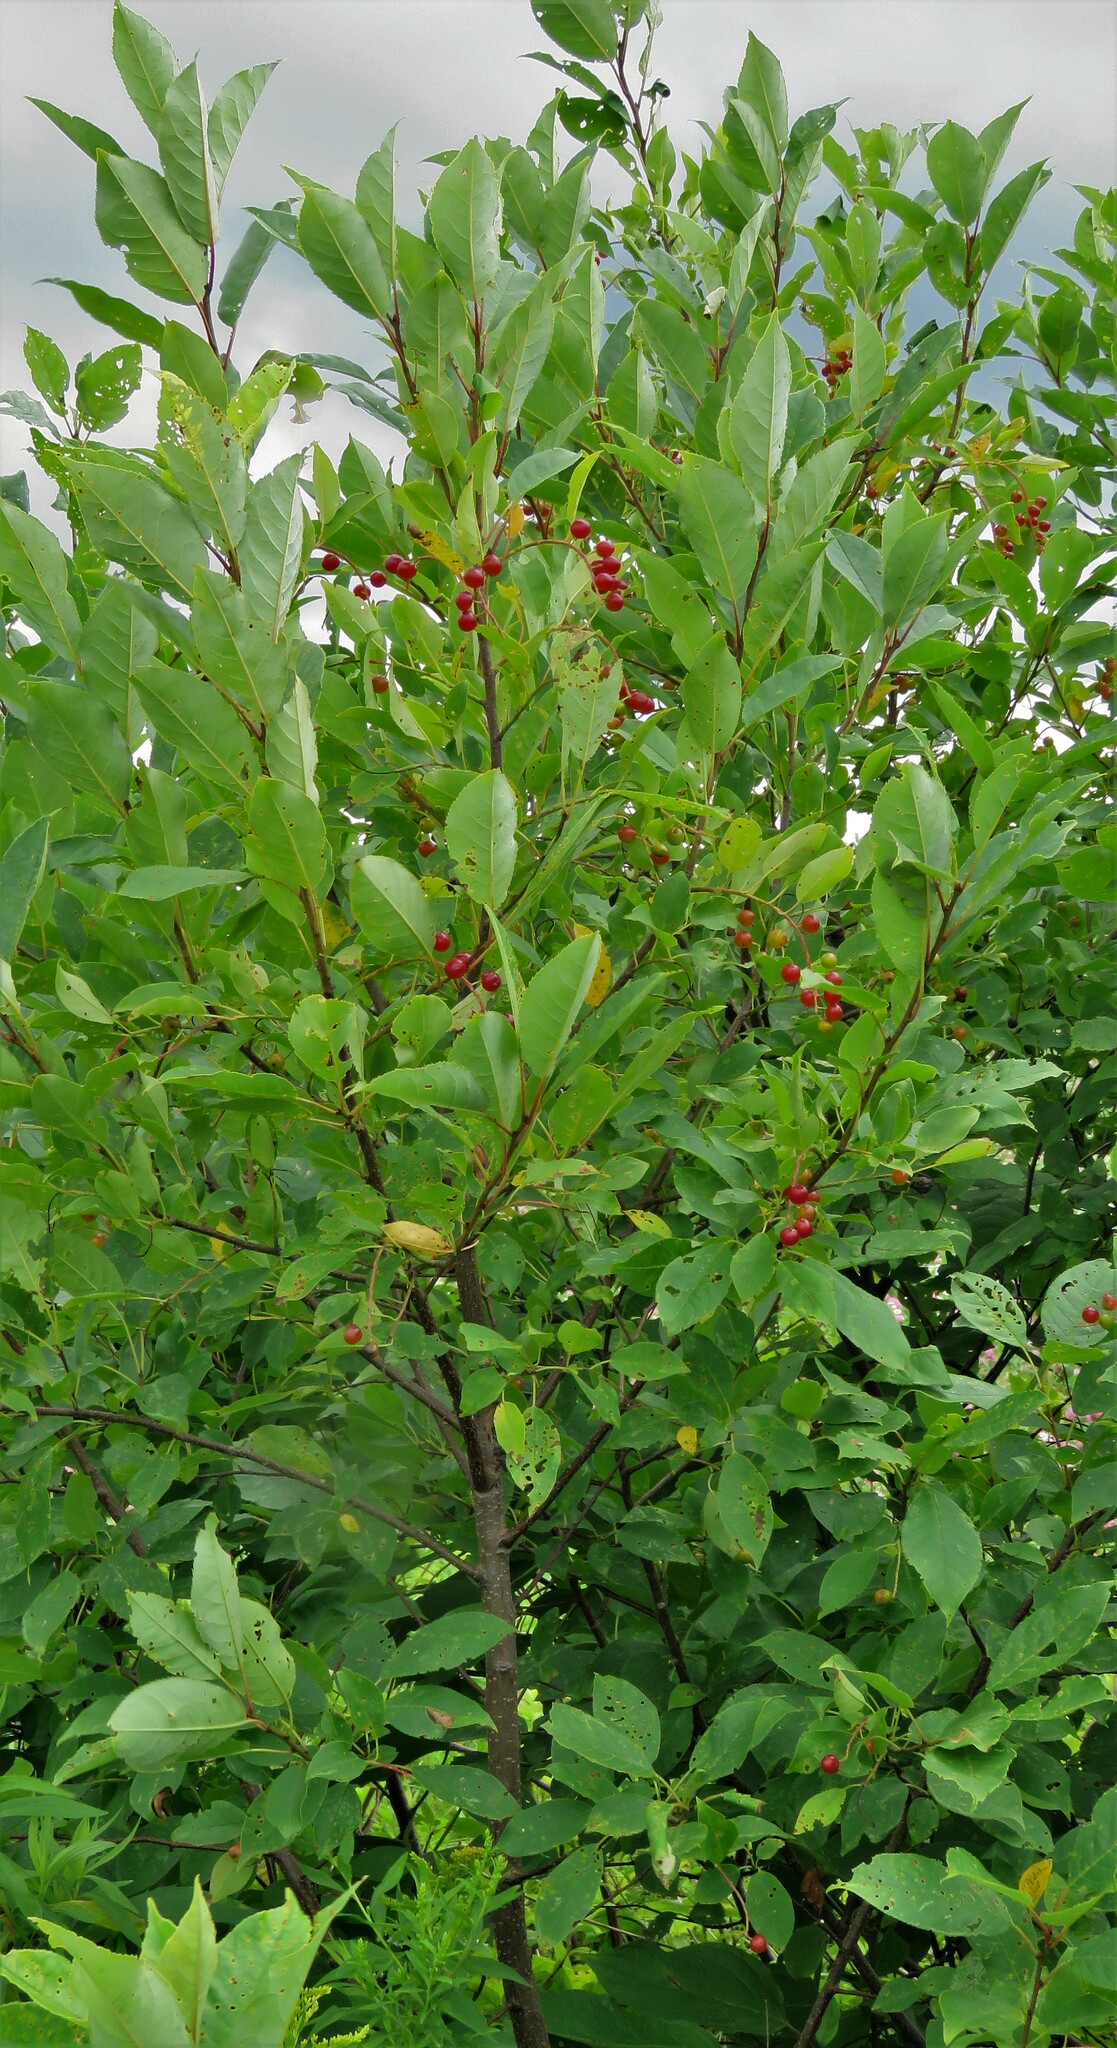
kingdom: Plantae
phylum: Tracheophyta
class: Magnoliopsida
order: Rosales
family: Rosaceae
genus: Prunus
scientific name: Prunus virginiana
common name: Chokecherry
